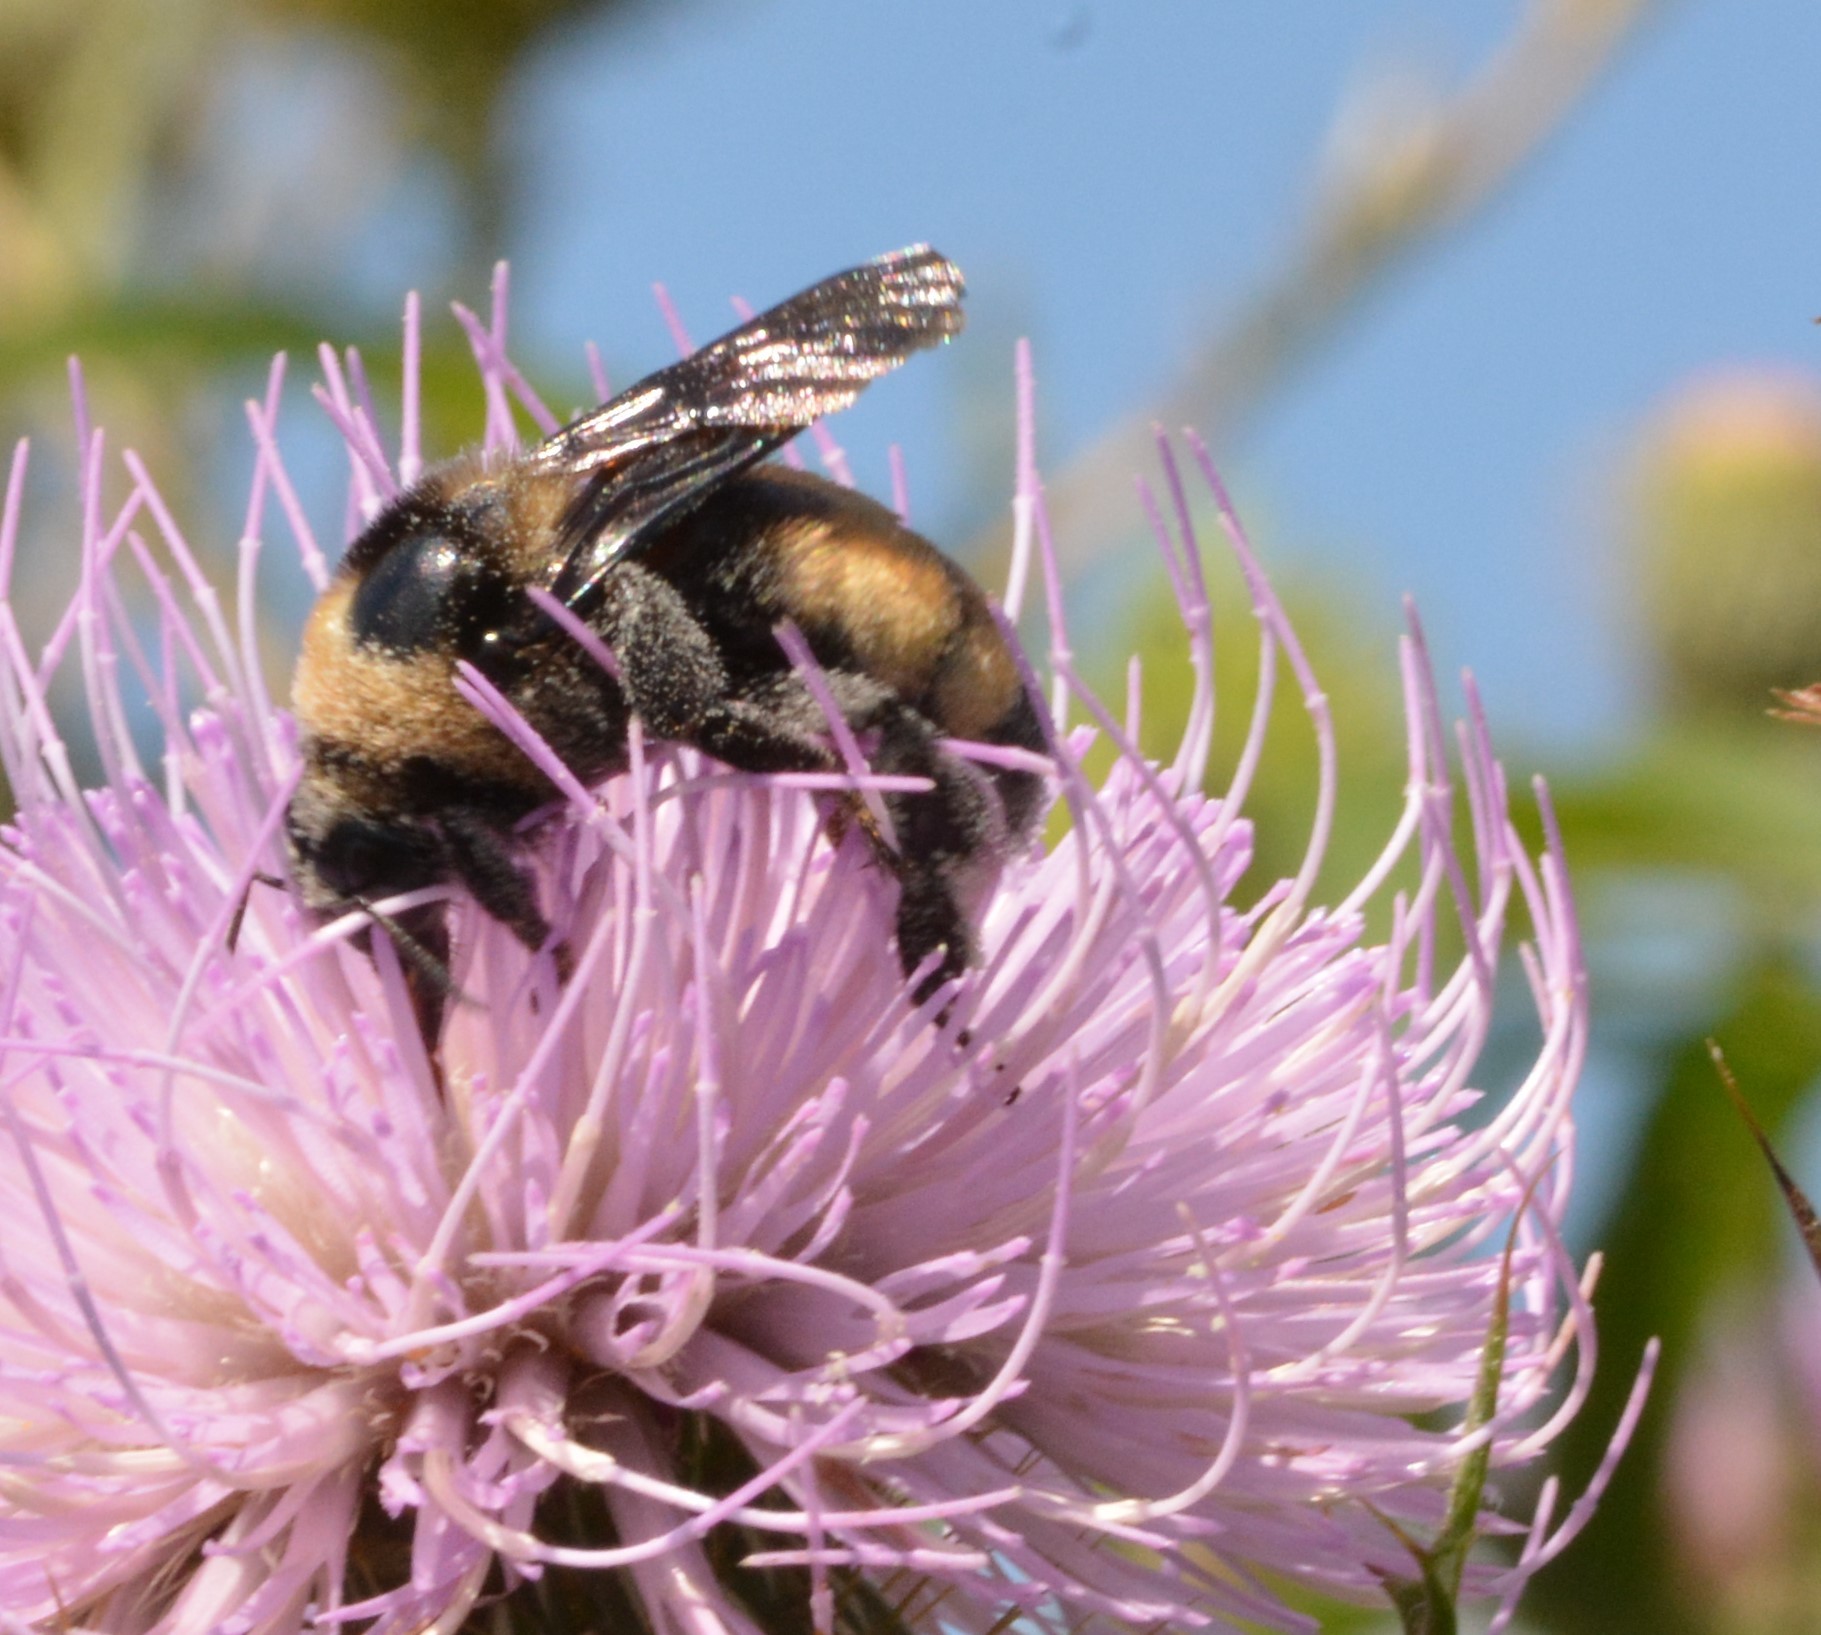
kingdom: Animalia
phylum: Arthropoda
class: Insecta
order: Hymenoptera
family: Apidae
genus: Bombus
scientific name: Bombus auricomus
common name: Black and gold bumble bee
